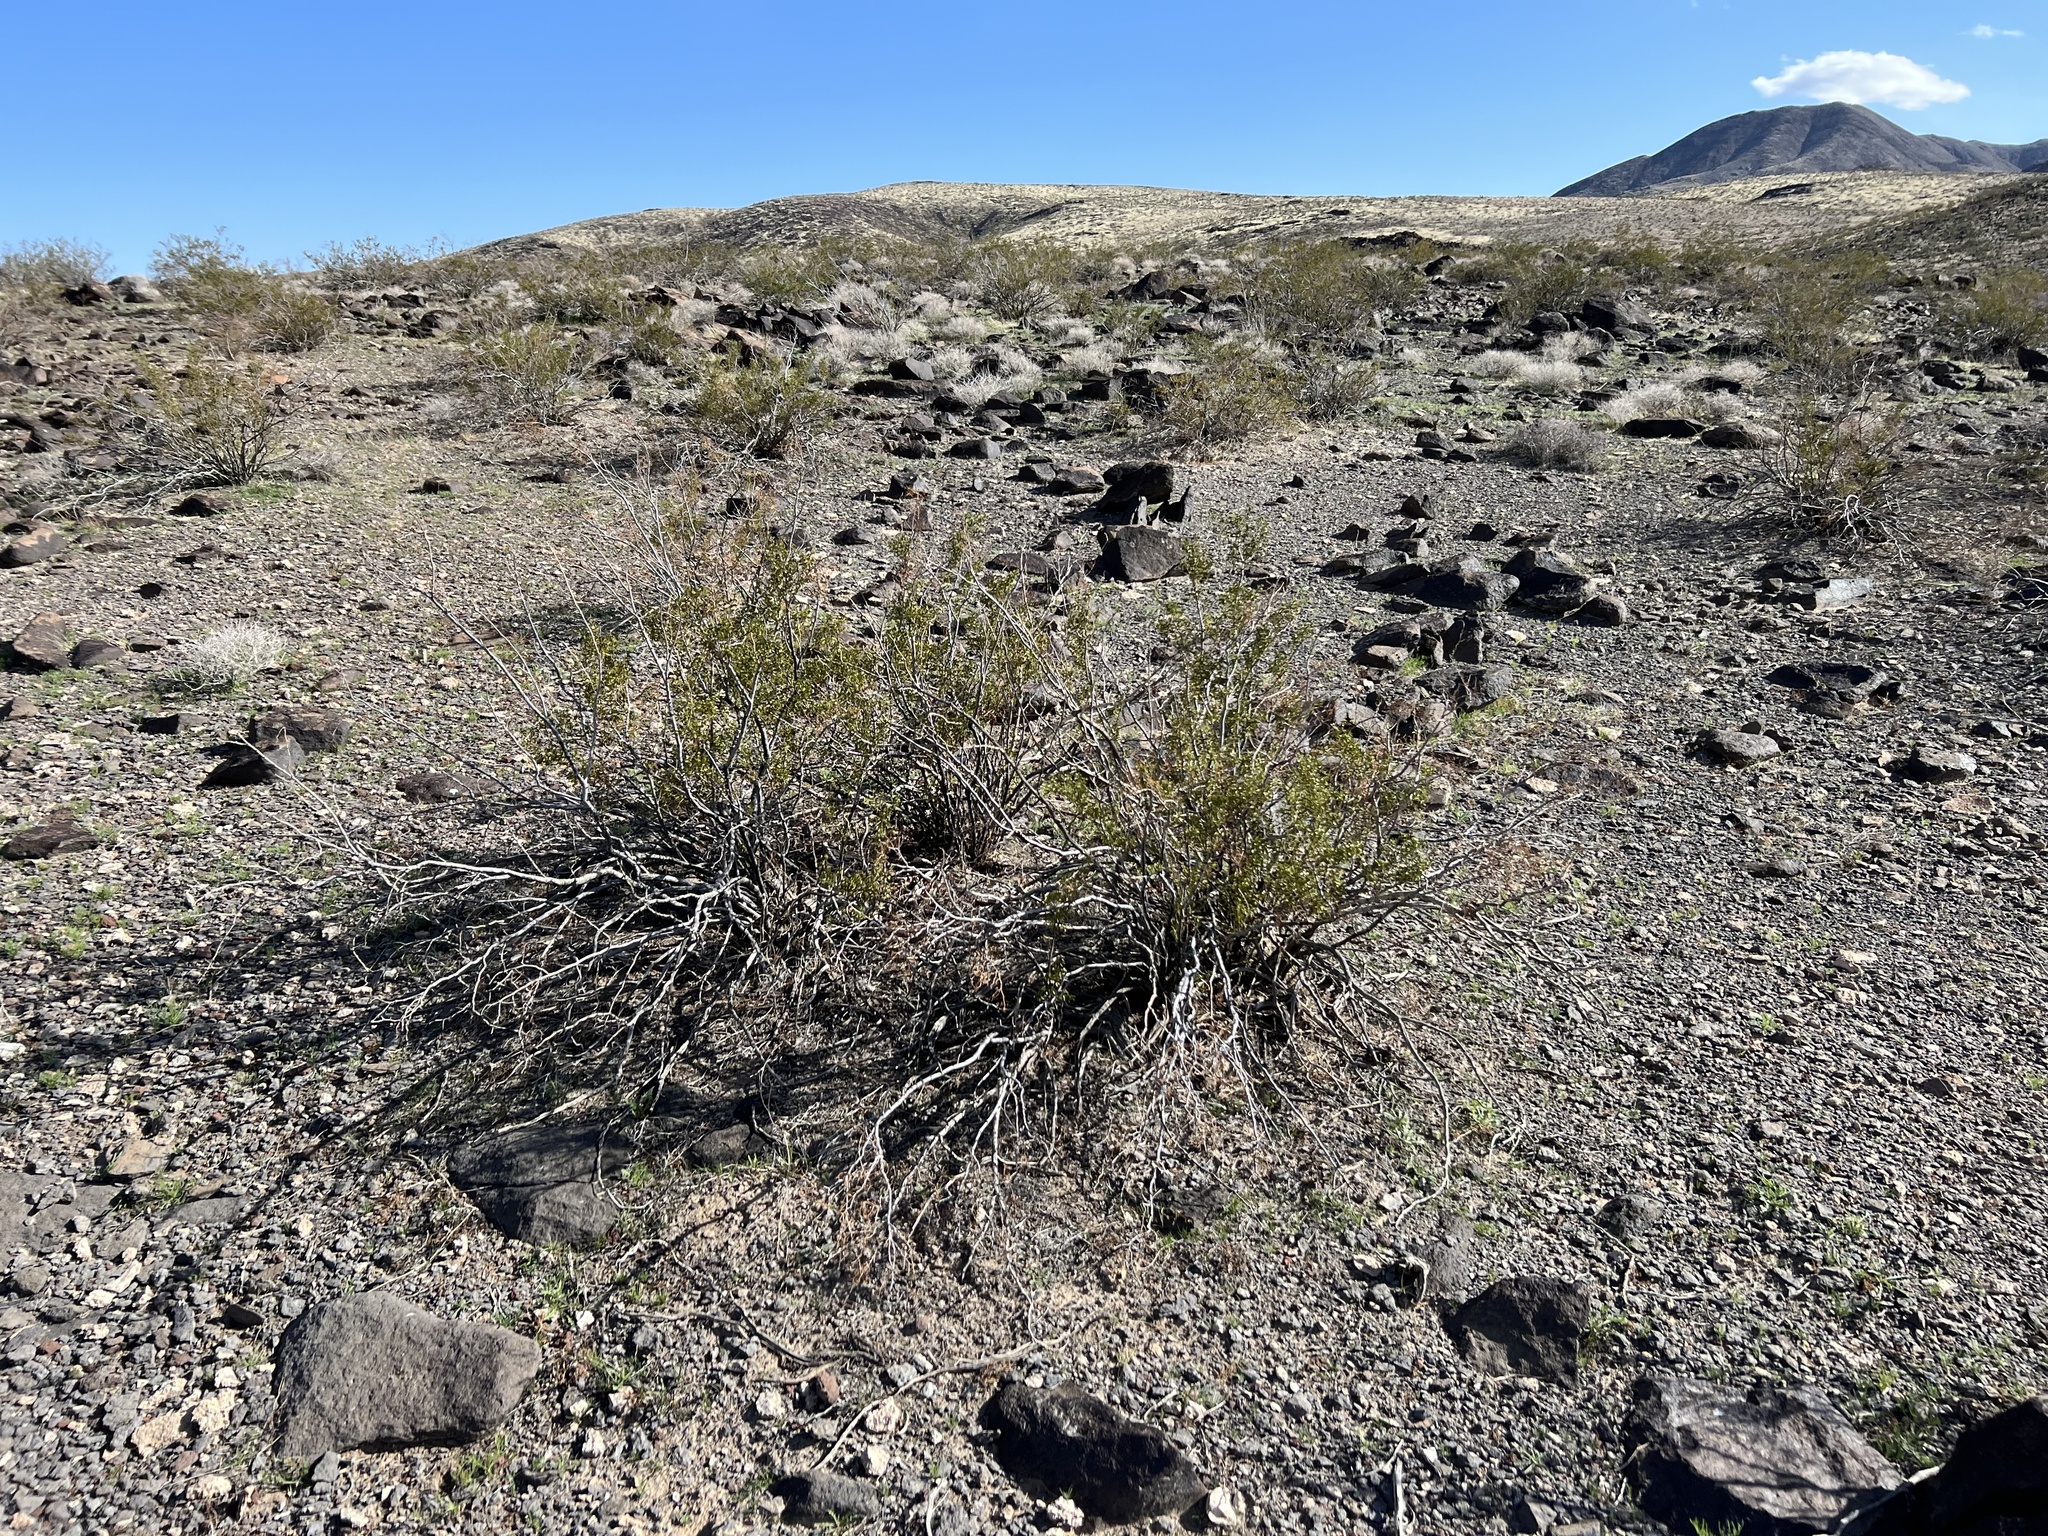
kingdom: Plantae
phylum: Tracheophyta
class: Magnoliopsida
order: Zygophyllales
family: Zygophyllaceae
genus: Larrea
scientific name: Larrea tridentata
